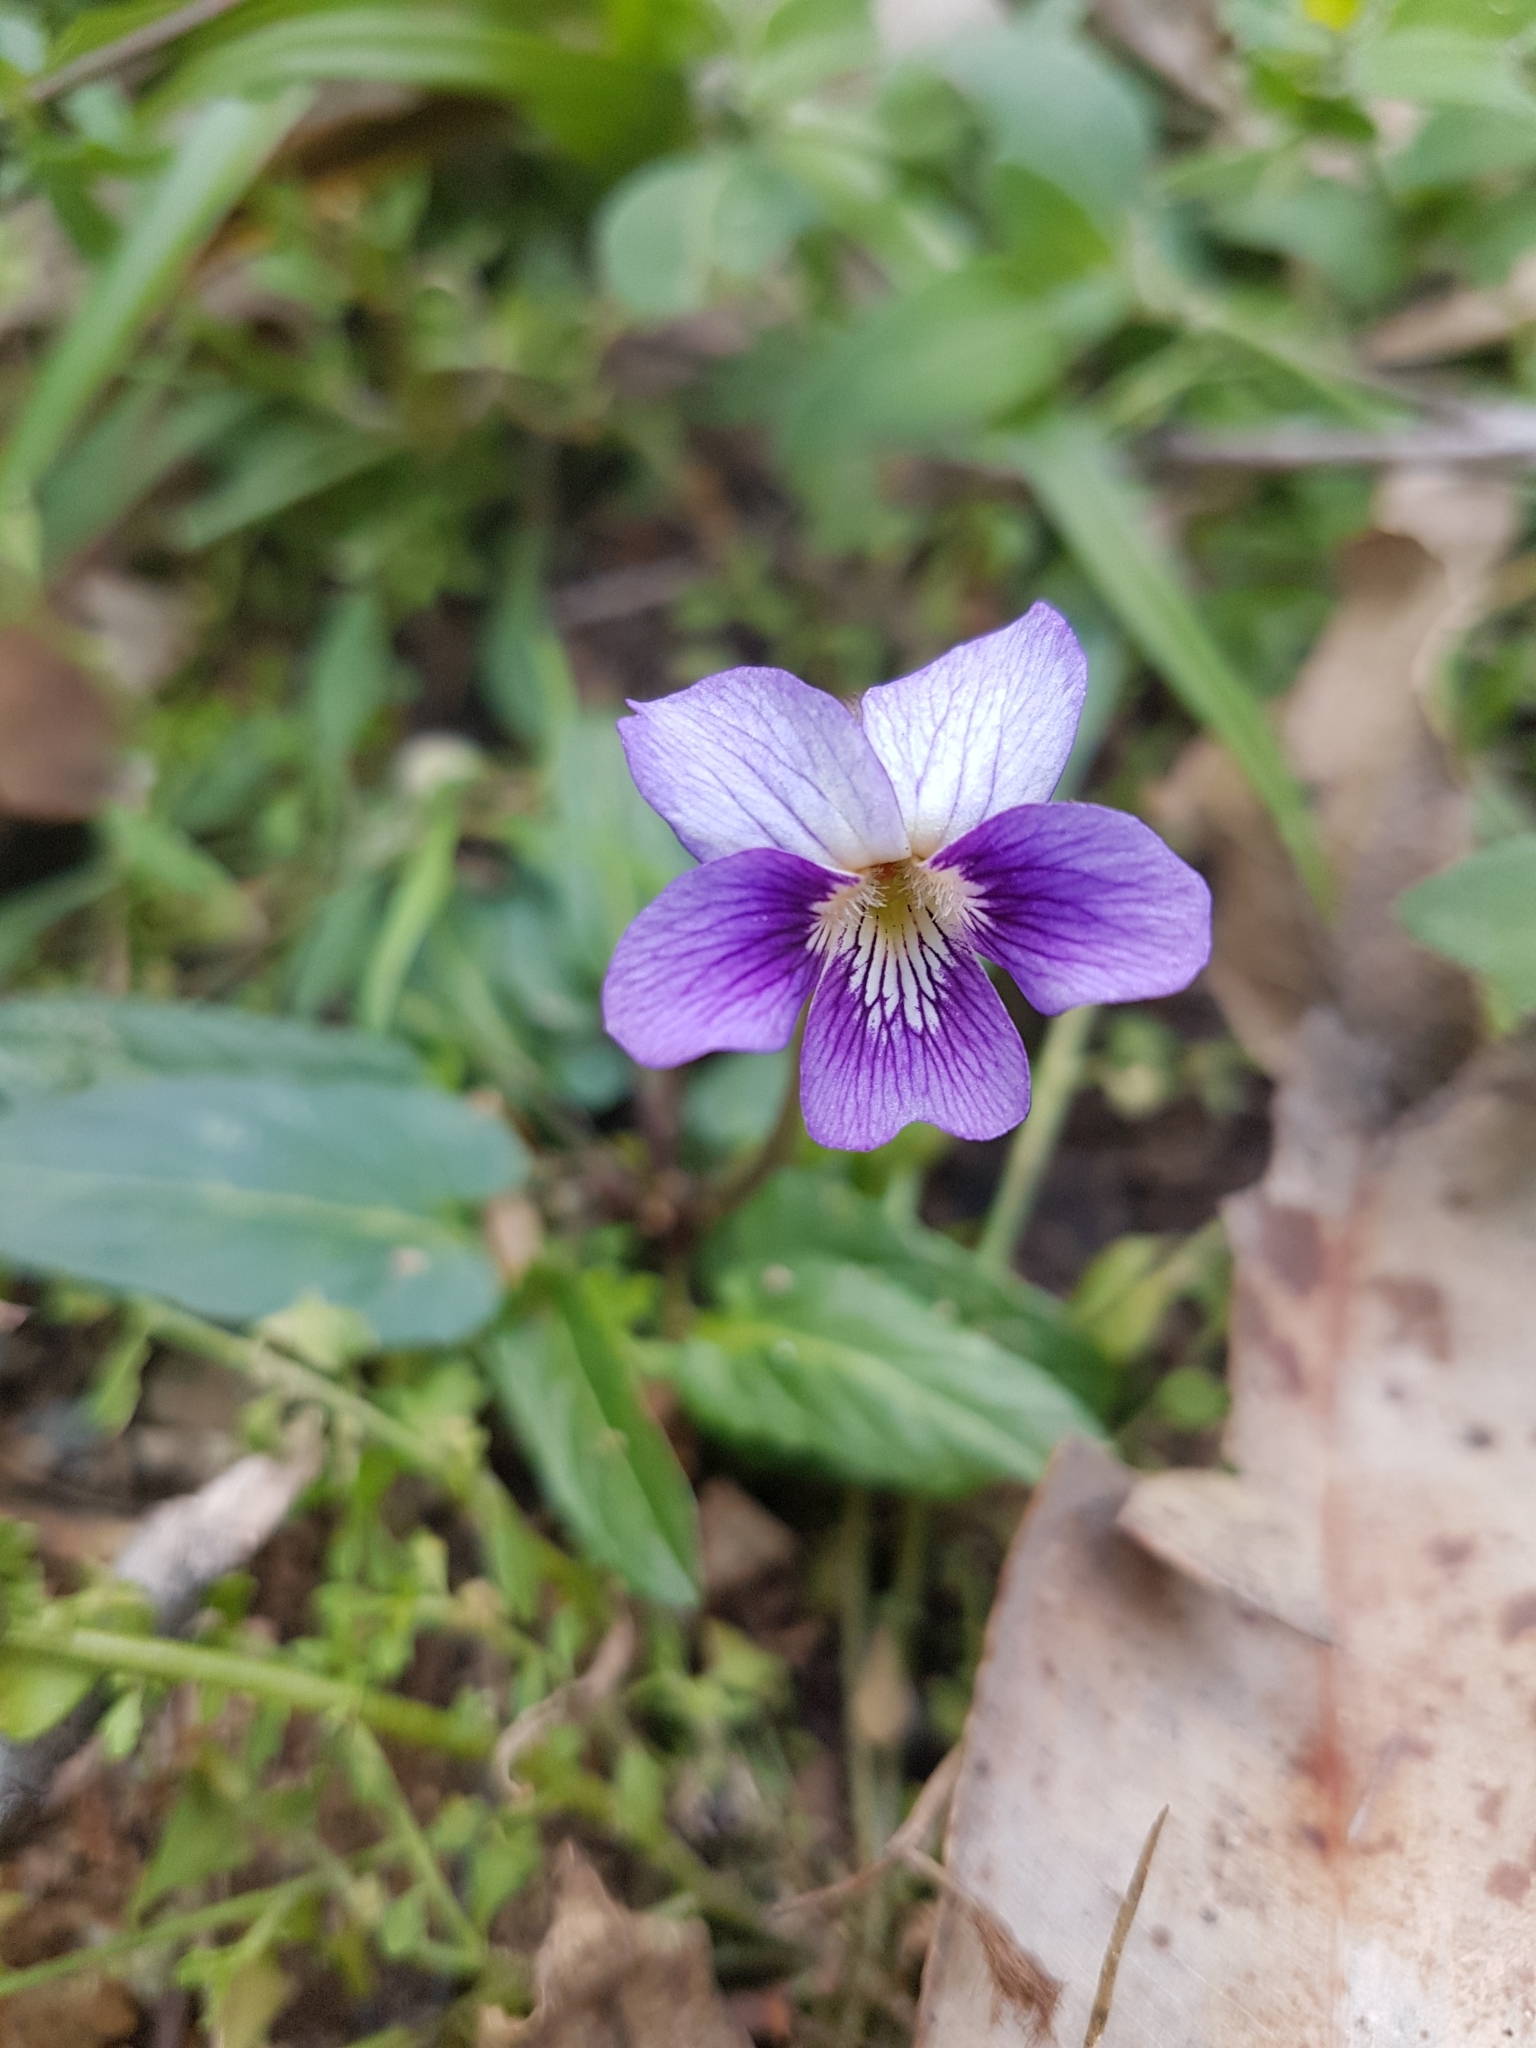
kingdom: Plantae
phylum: Tracheophyta
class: Magnoliopsida
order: Malpighiales
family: Violaceae
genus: Viola
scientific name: Viola betonicifolia
